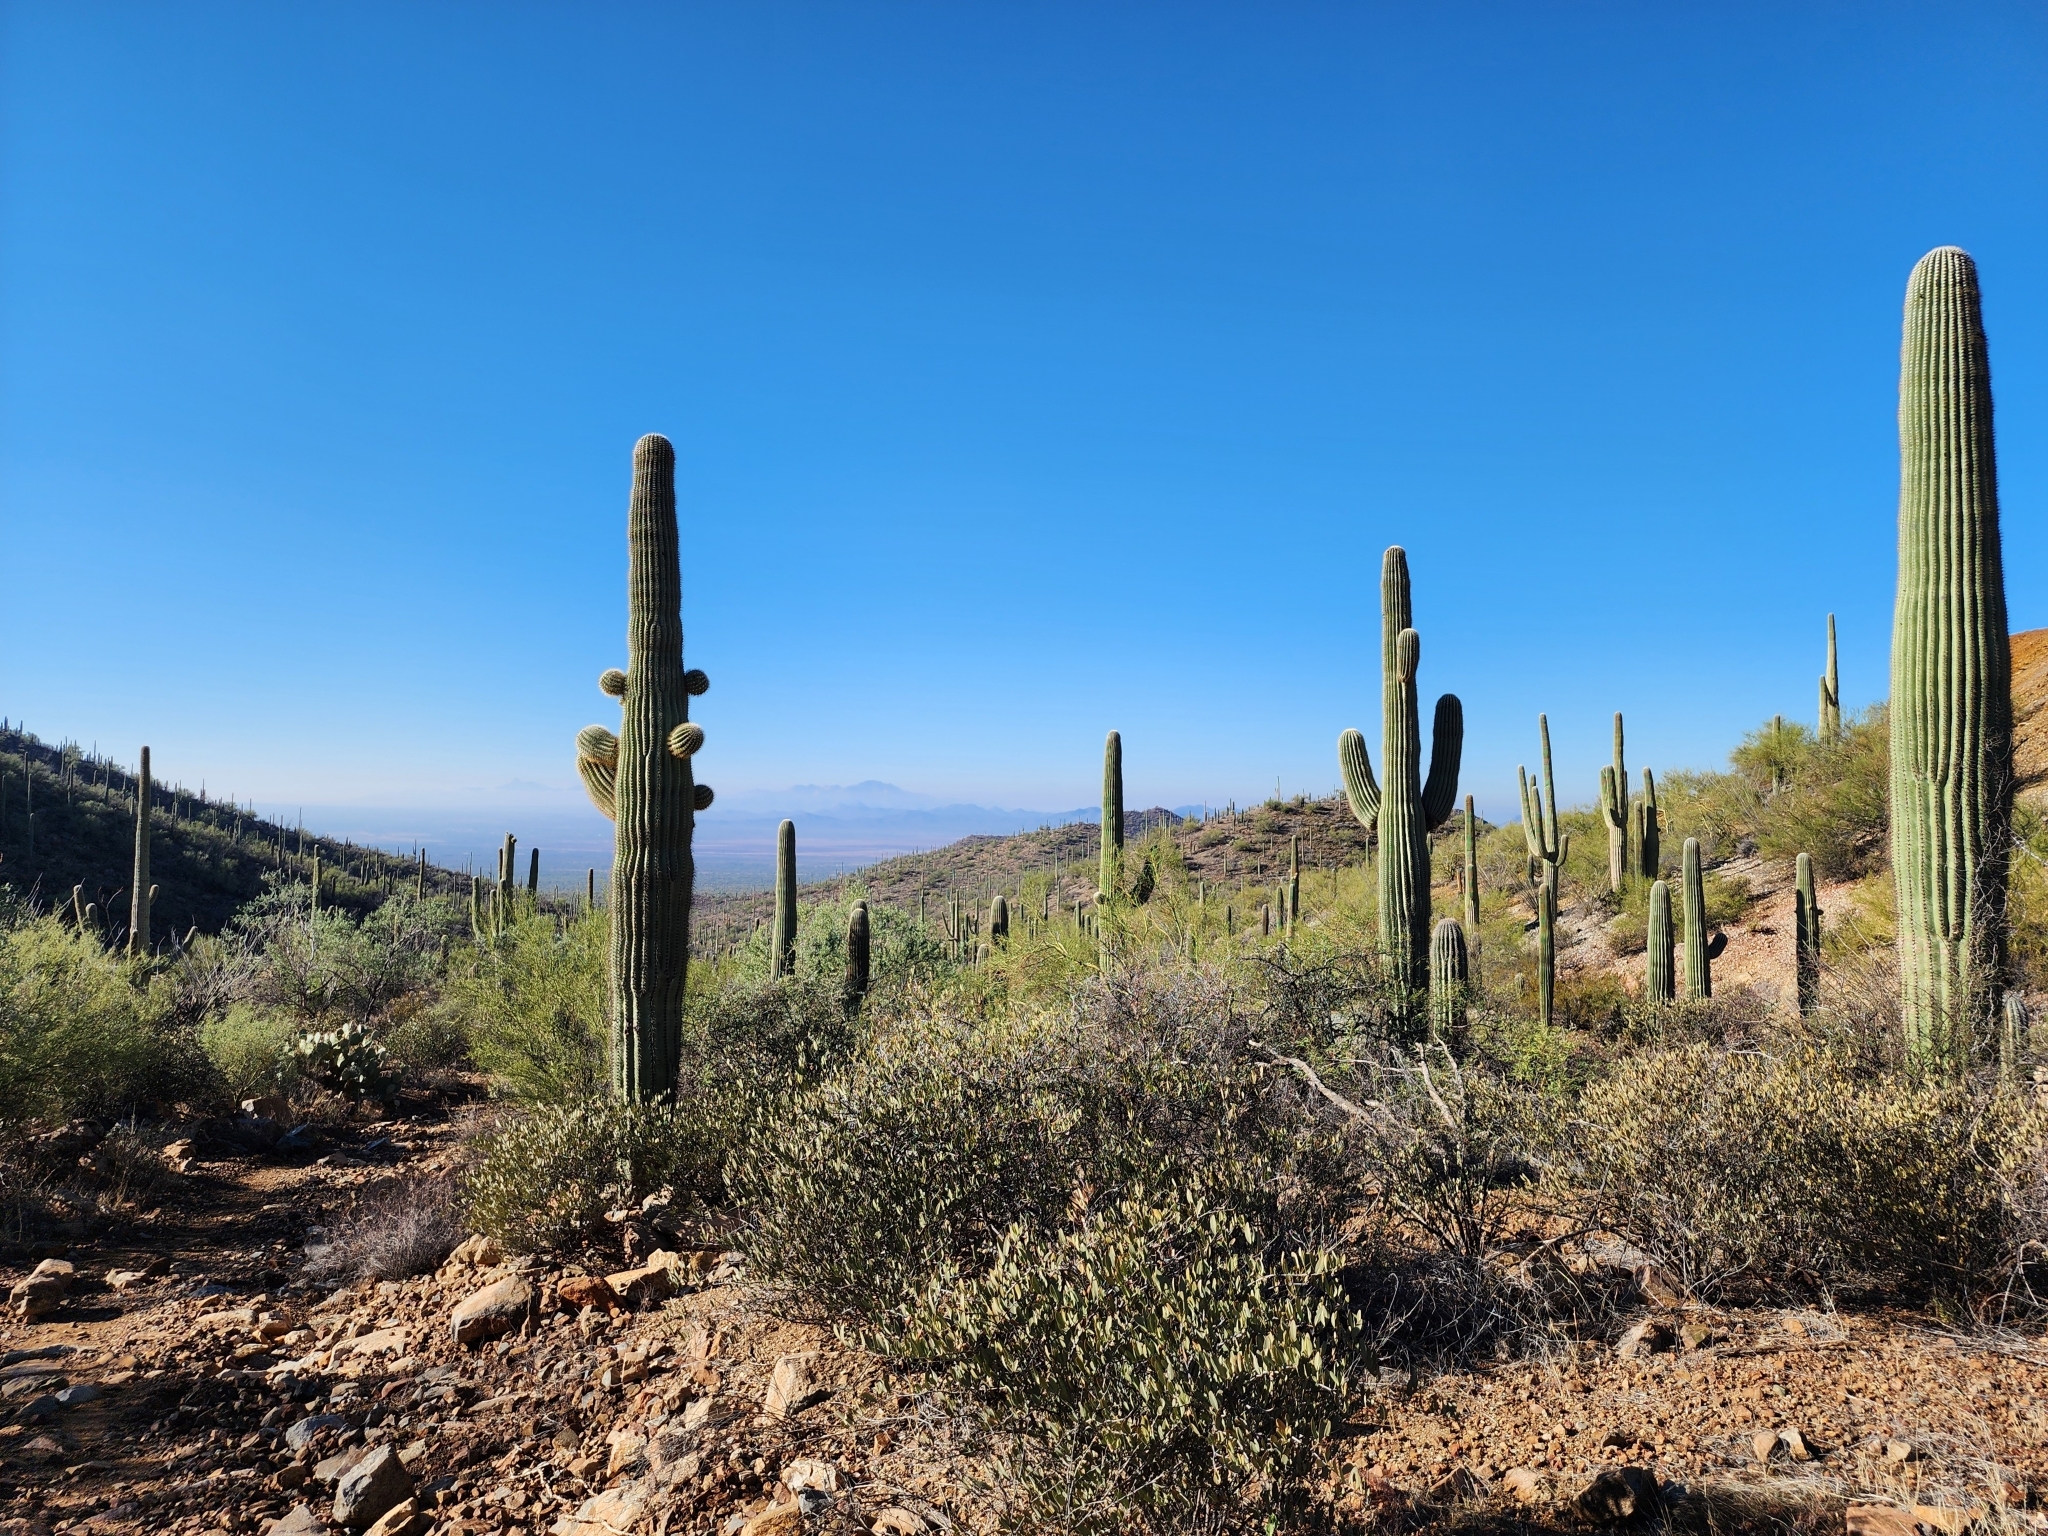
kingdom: Plantae
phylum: Tracheophyta
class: Magnoliopsida
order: Caryophyllales
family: Cactaceae
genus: Carnegiea
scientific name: Carnegiea gigantea
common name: Saguaro
